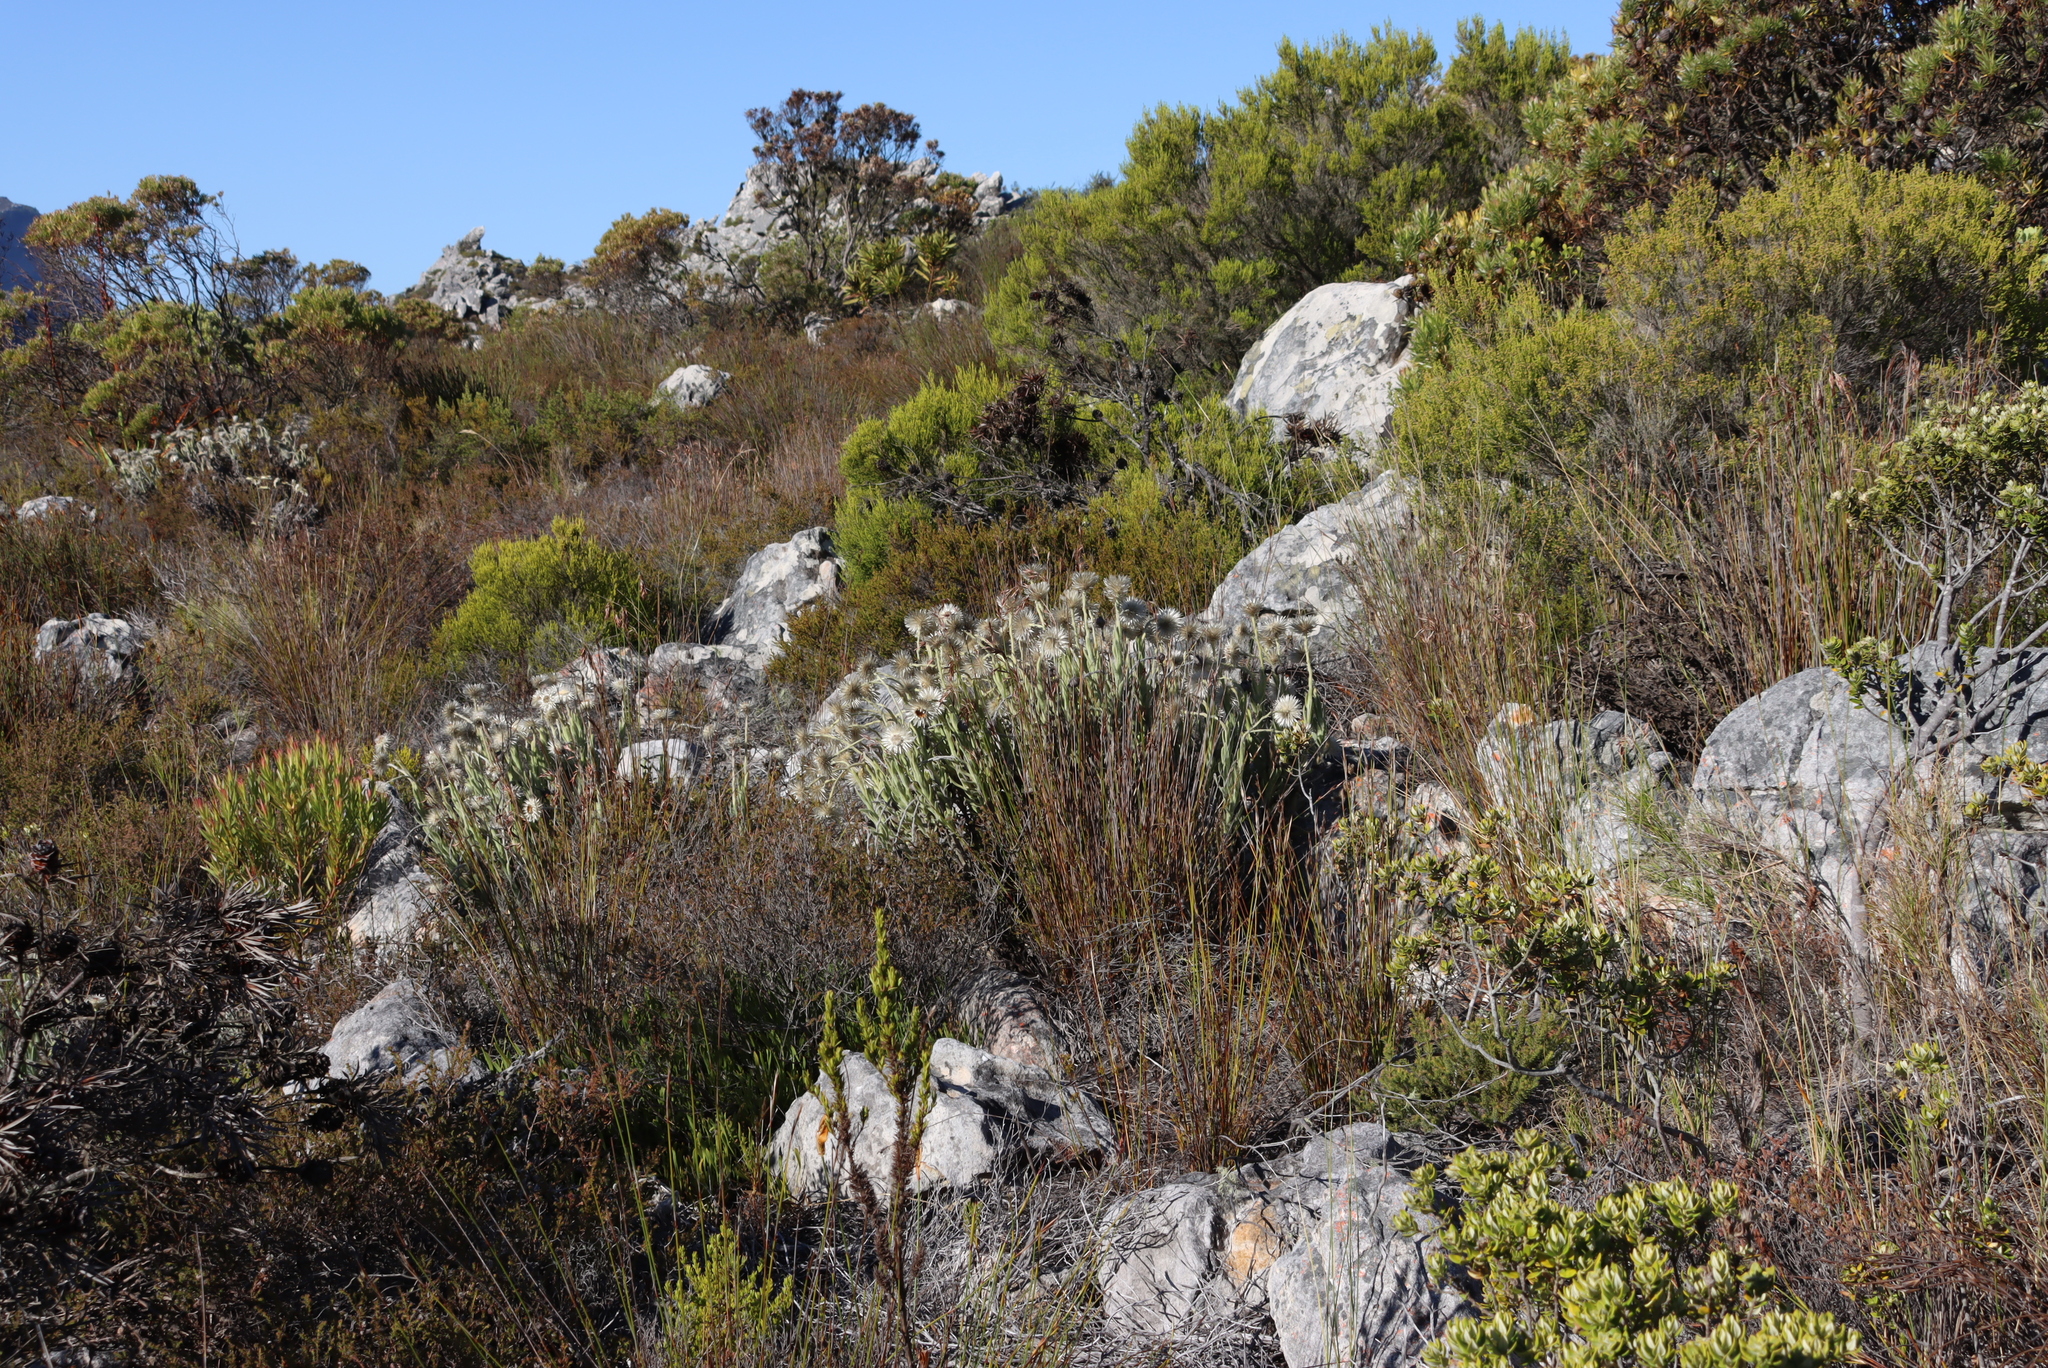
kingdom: Plantae
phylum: Tracheophyta
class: Magnoliopsida
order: Asterales
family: Asteraceae
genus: Syncarpha
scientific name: Syncarpha speciosissima
